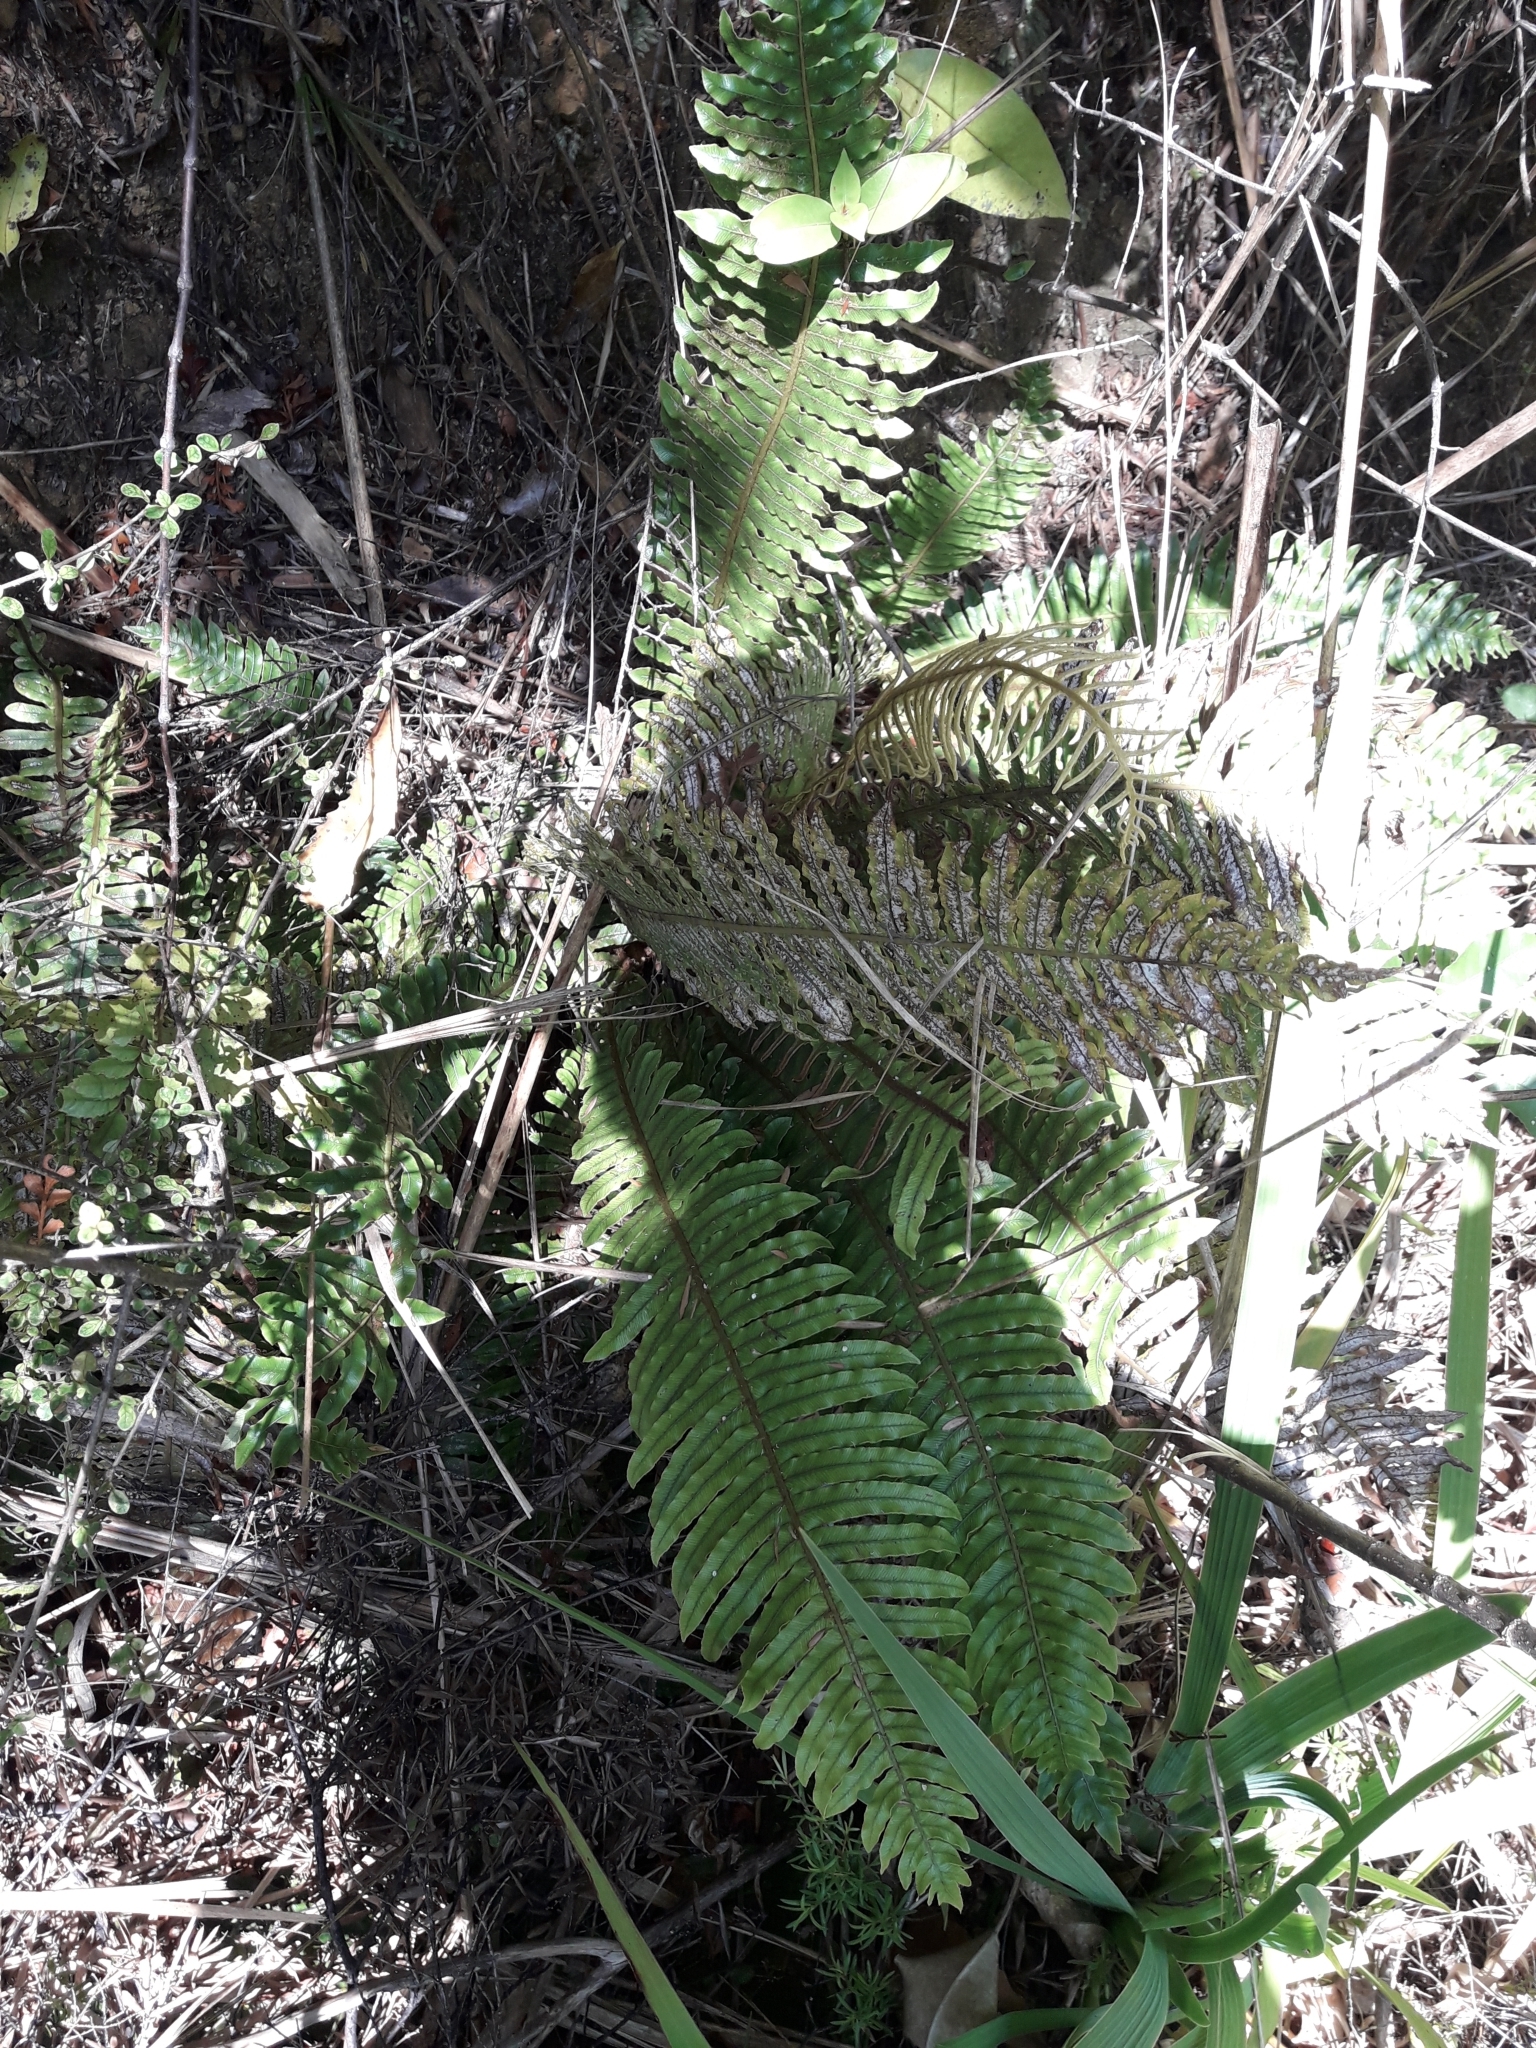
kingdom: Plantae
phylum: Tracheophyta
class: Polypodiopsida
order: Polypodiales
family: Blechnaceae
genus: Lomaria
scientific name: Lomaria discolor
